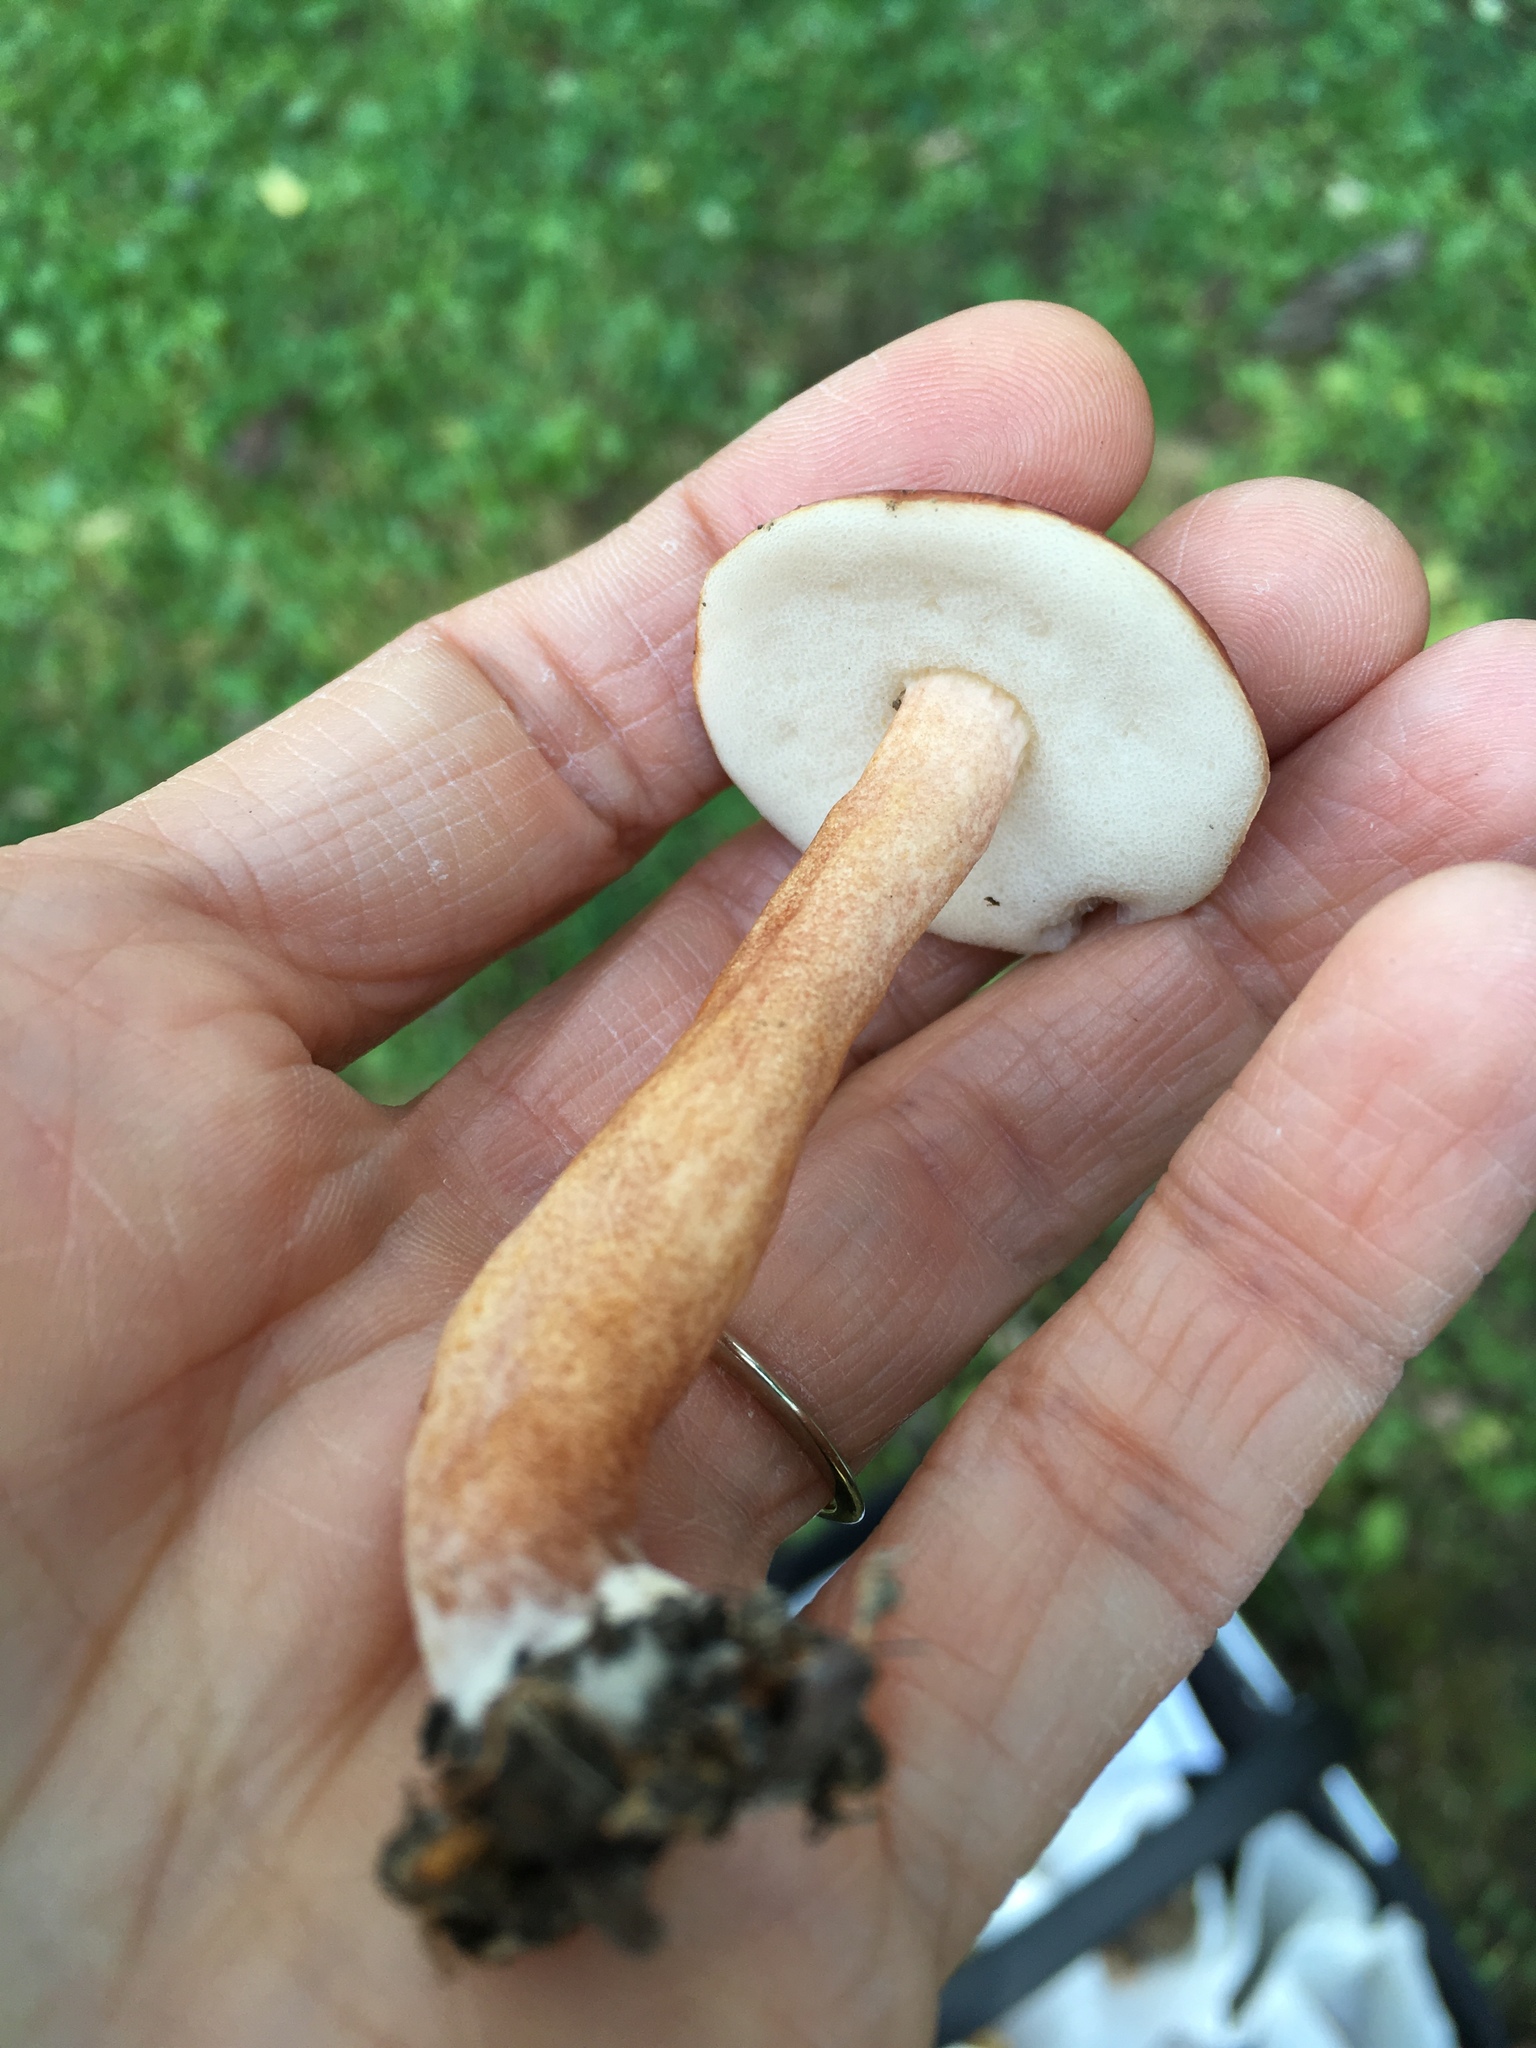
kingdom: Fungi
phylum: Basidiomycota
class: Agaricomycetes
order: Boletales
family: Gyroporaceae
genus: Gyroporus
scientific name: Gyroporus purpurinus
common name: Red gyroporus
